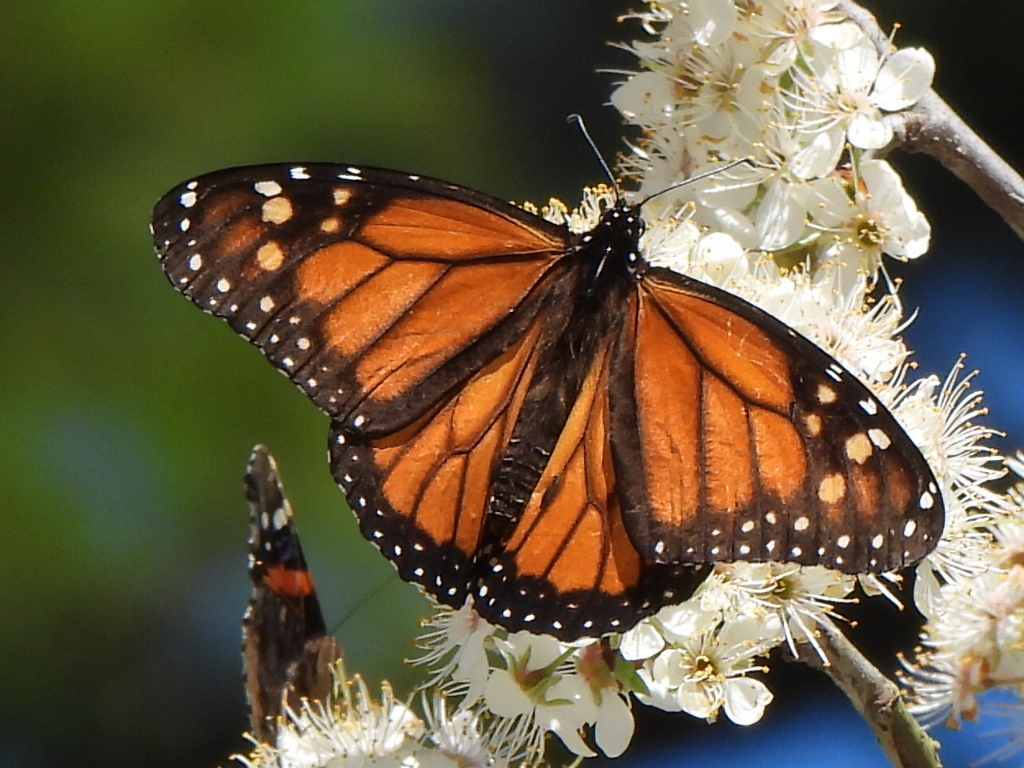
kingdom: Animalia
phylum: Arthropoda
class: Insecta
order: Lepidoptera
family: Nymphalidae
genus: Danaus
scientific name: Danaus plexippus
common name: Monarch
